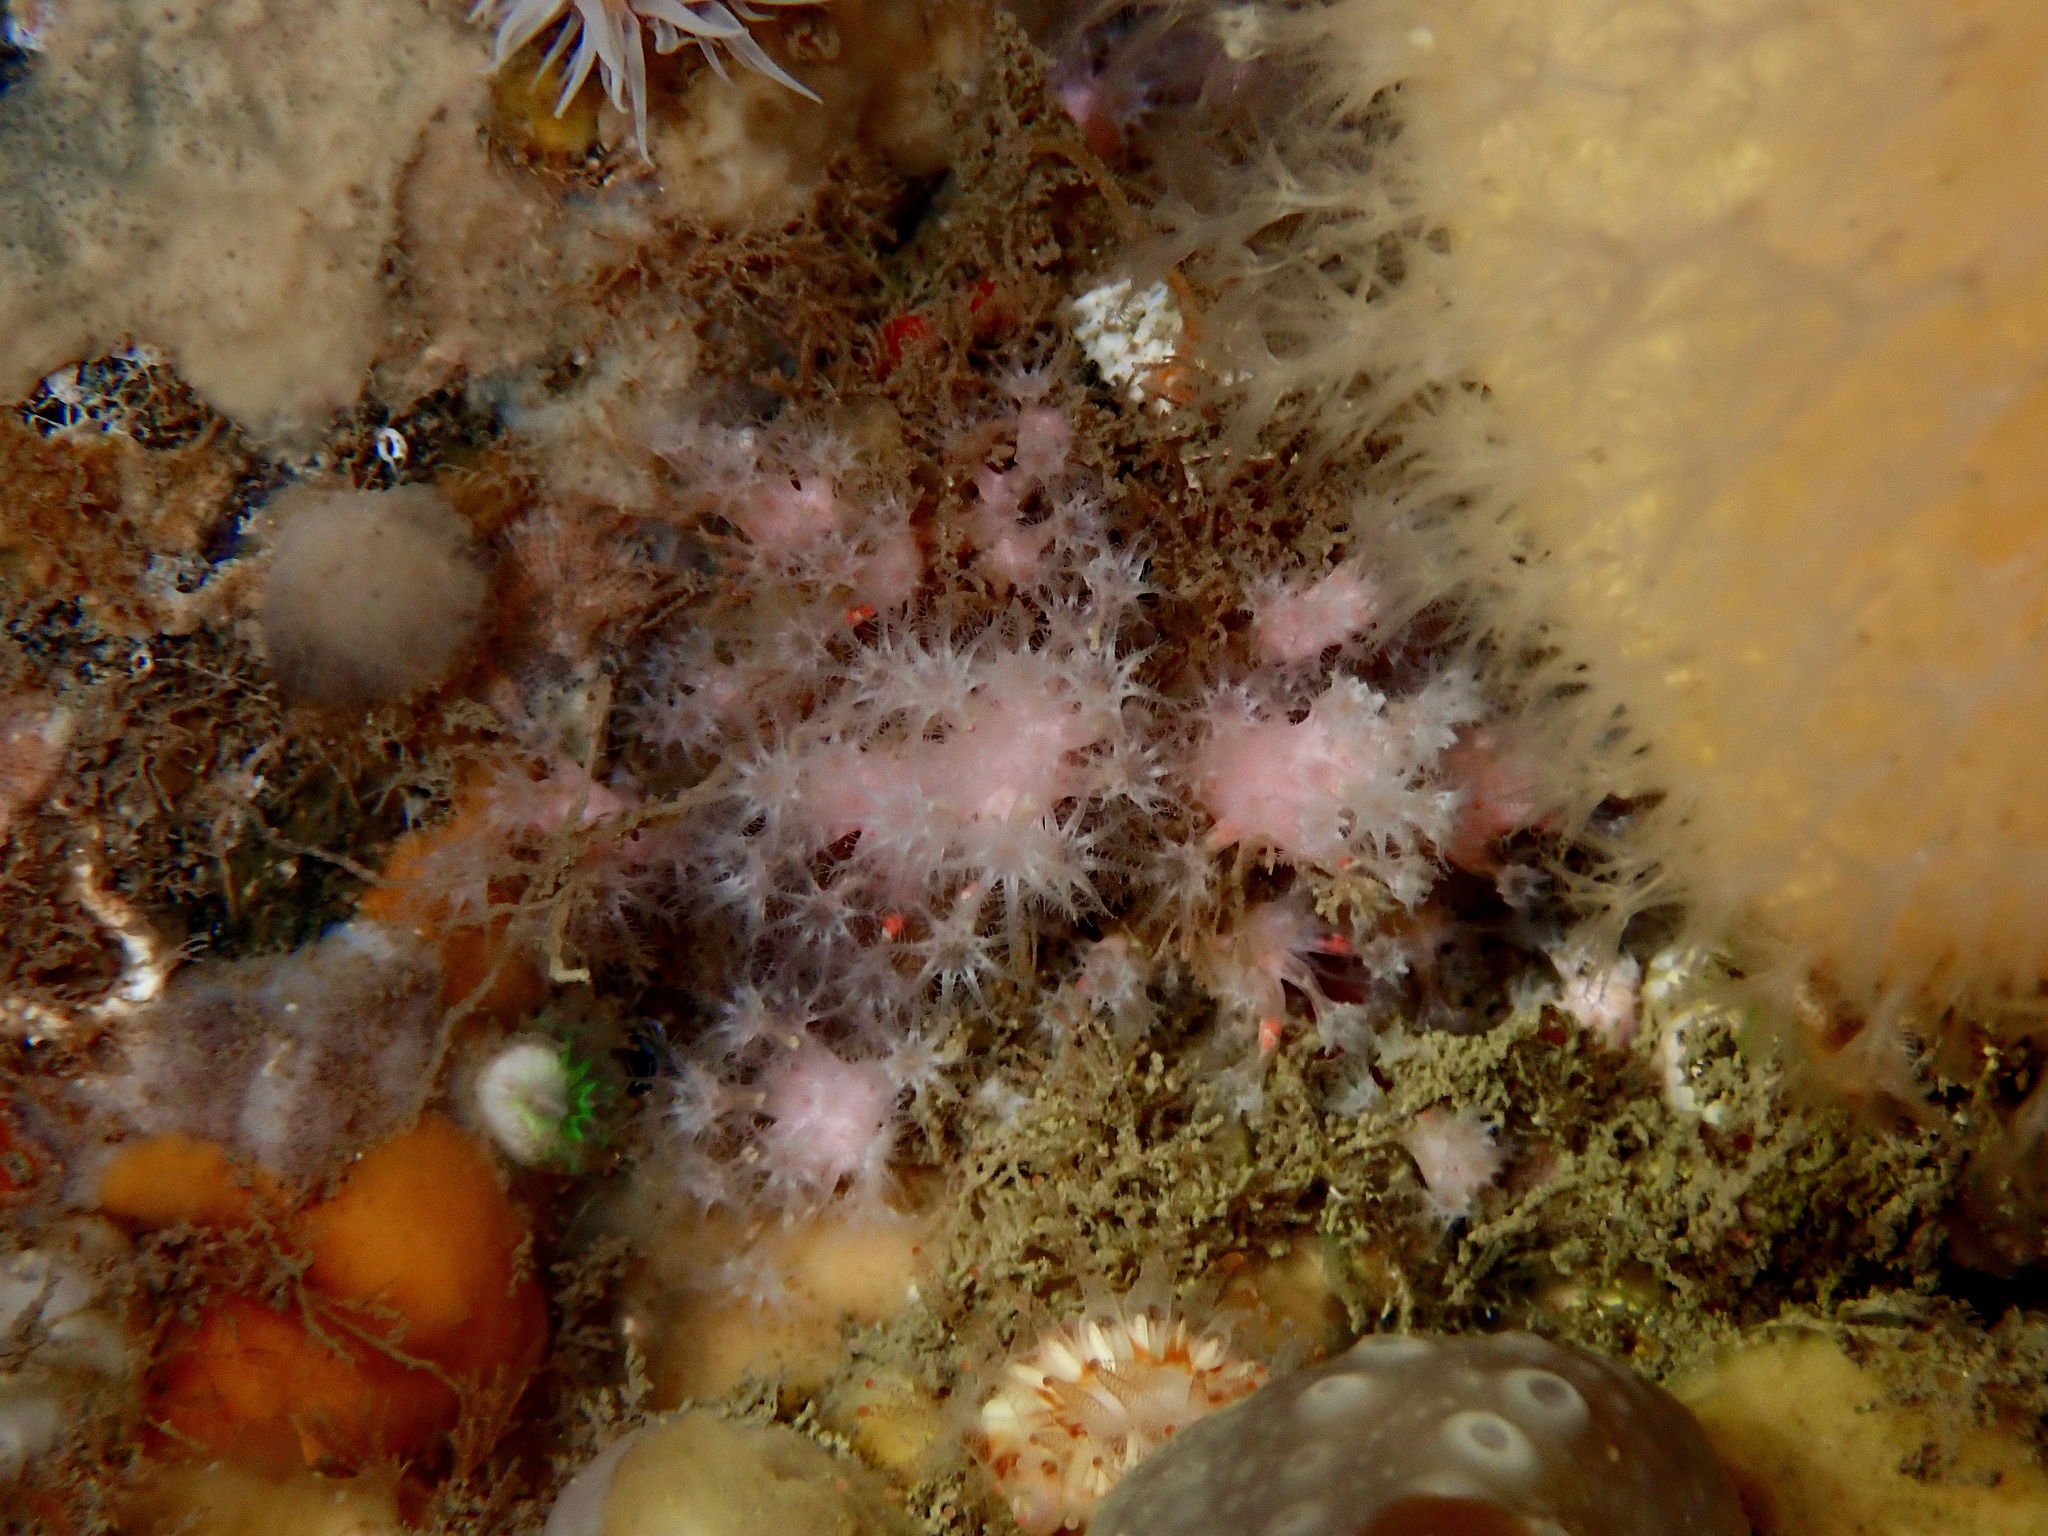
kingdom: Animalia
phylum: Cnidaria
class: Anthozoa
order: Malacalcyonacea
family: Alcyoniidae
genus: Alcyonium
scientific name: Alcyonium hibernicum
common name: Pink sea fingers
